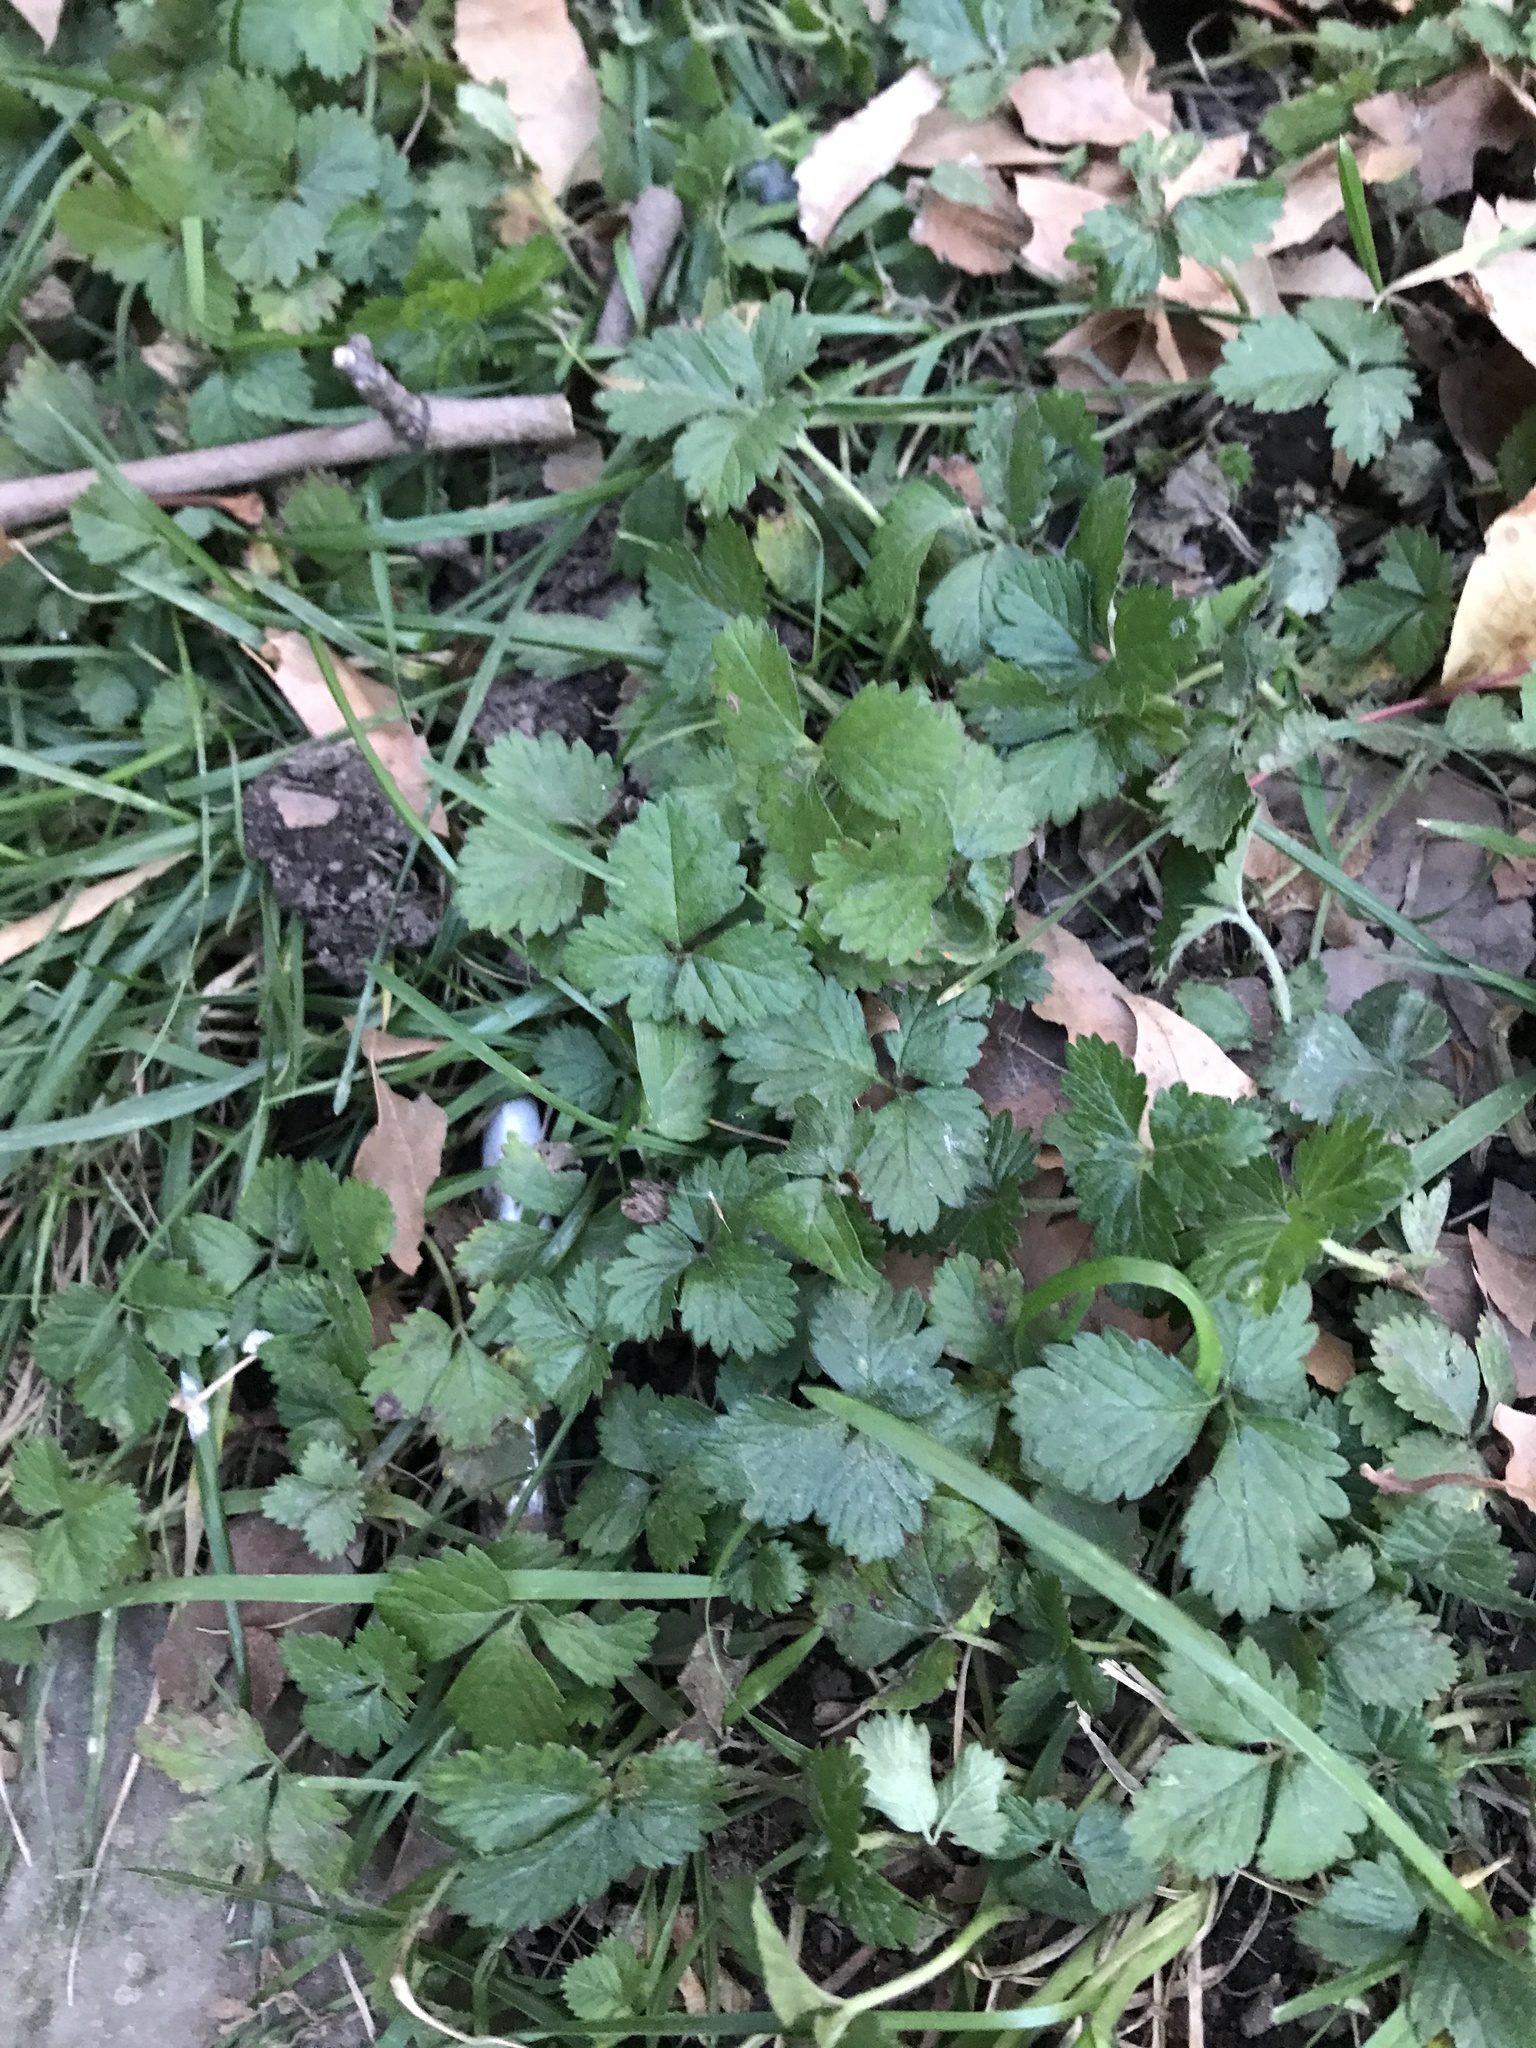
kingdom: Plantae
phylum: Tracheophyta
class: Magnoliopsida
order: Rosales
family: Rosaceae
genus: Potentilla
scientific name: Potentilla indica
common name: Yellow-flowered strawberry
